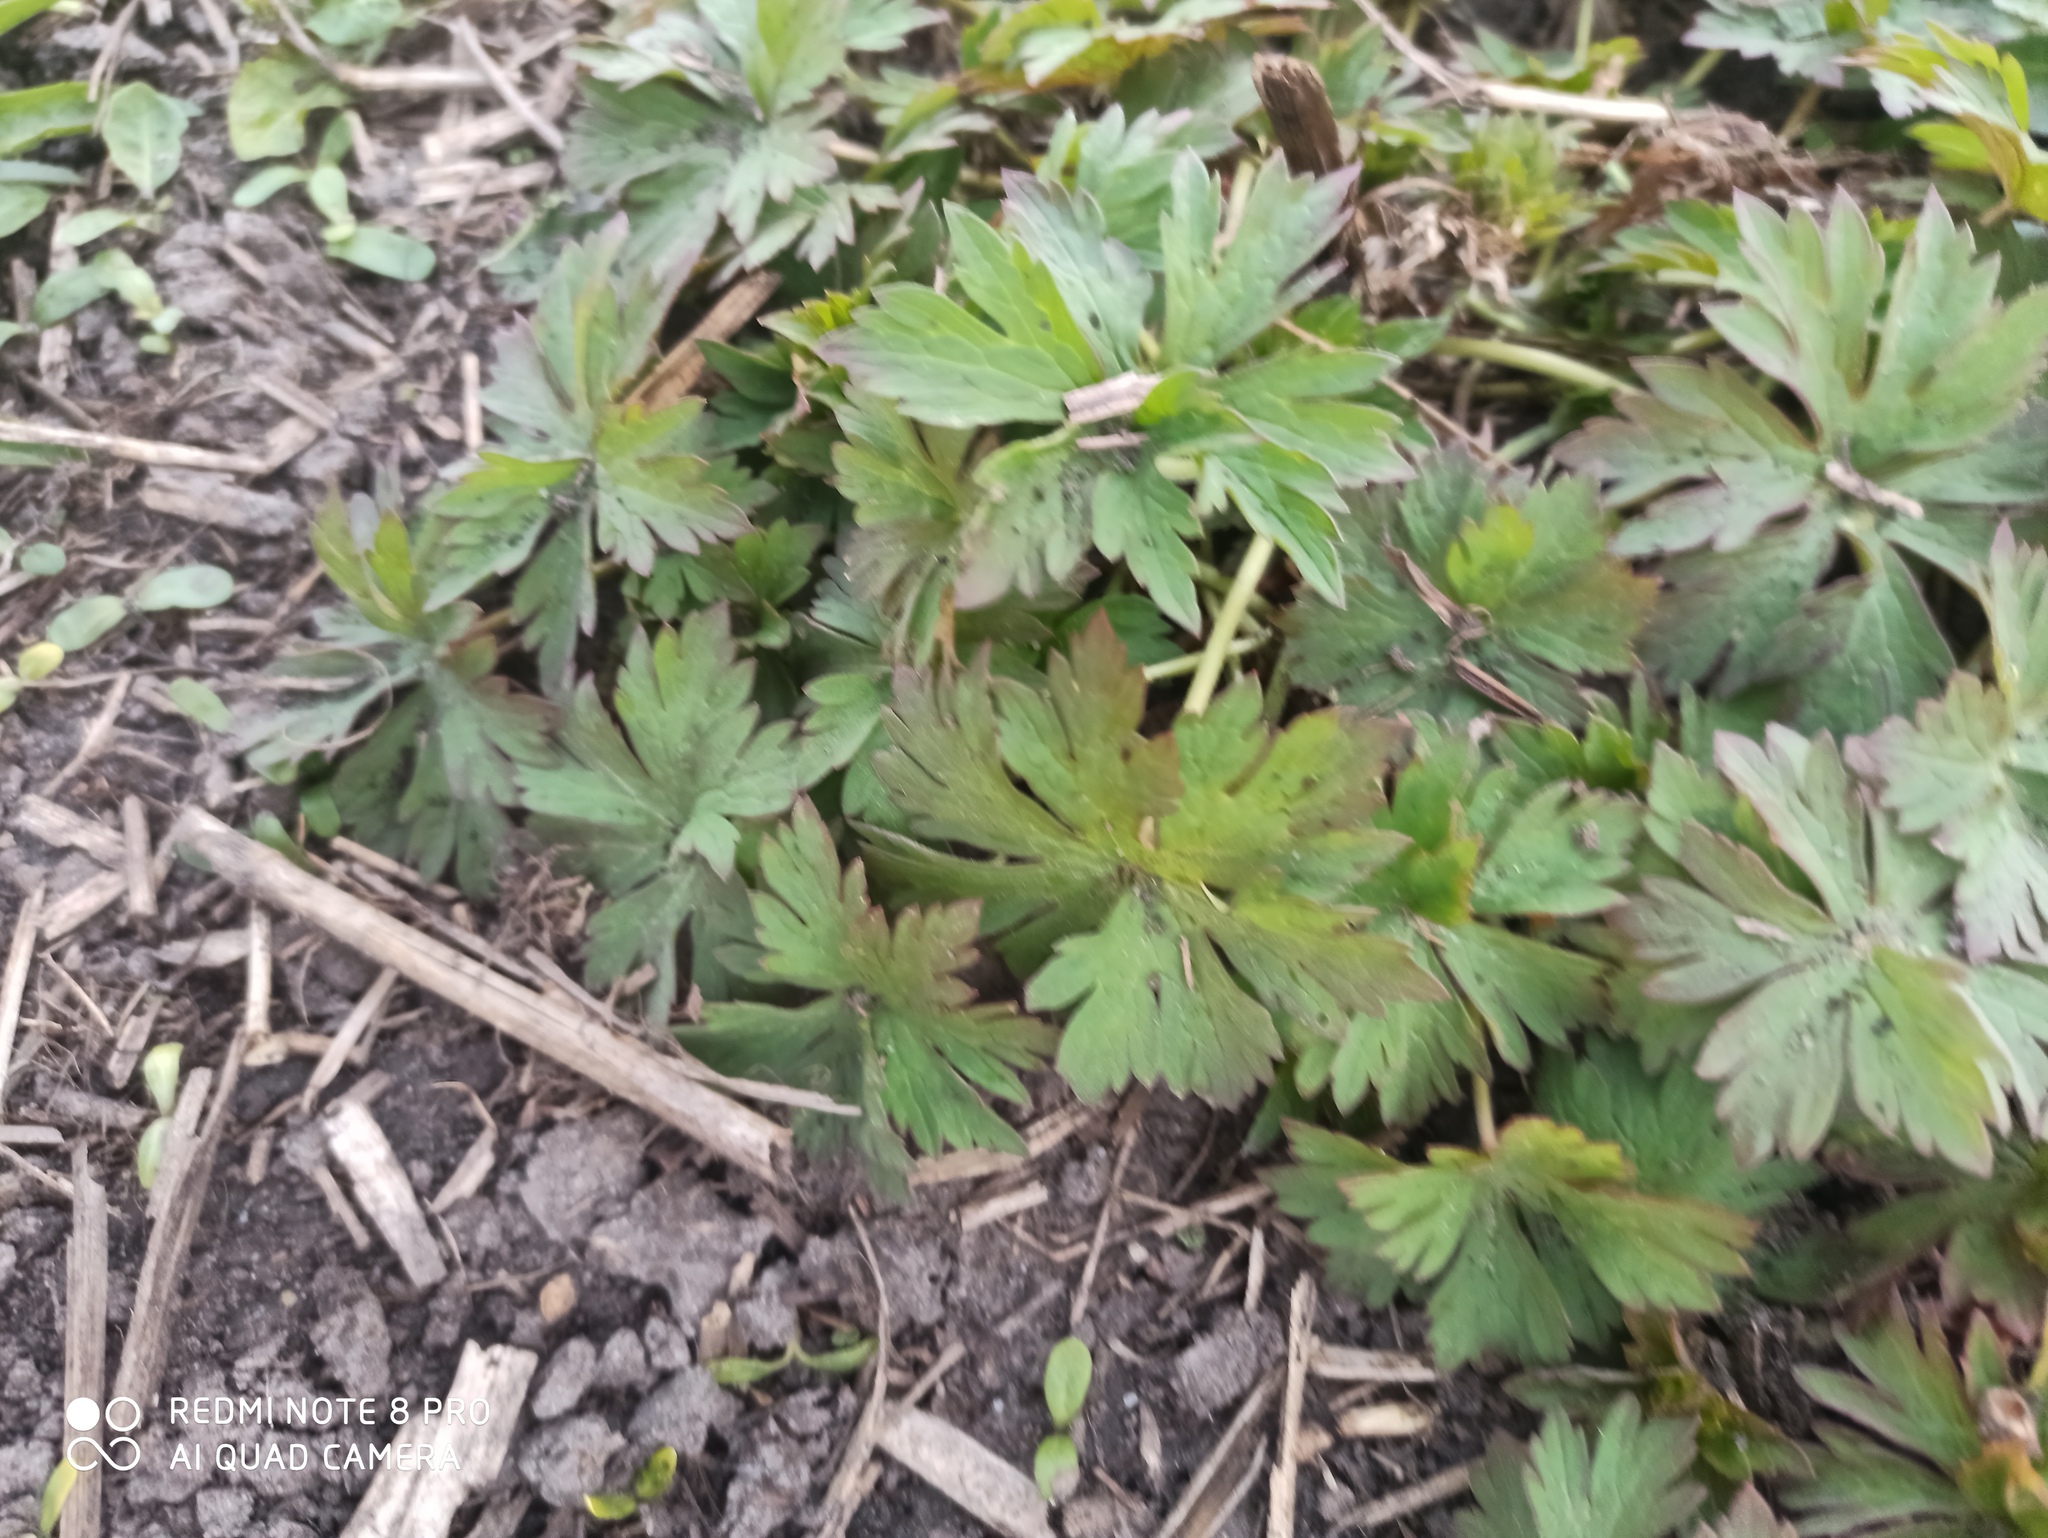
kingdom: Plantae
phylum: Tracheophyta
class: Magnoliopsida
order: Geraniales
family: Geraniaceae
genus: Geranium
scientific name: Geranium pratense
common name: Meadow crane's-bill
